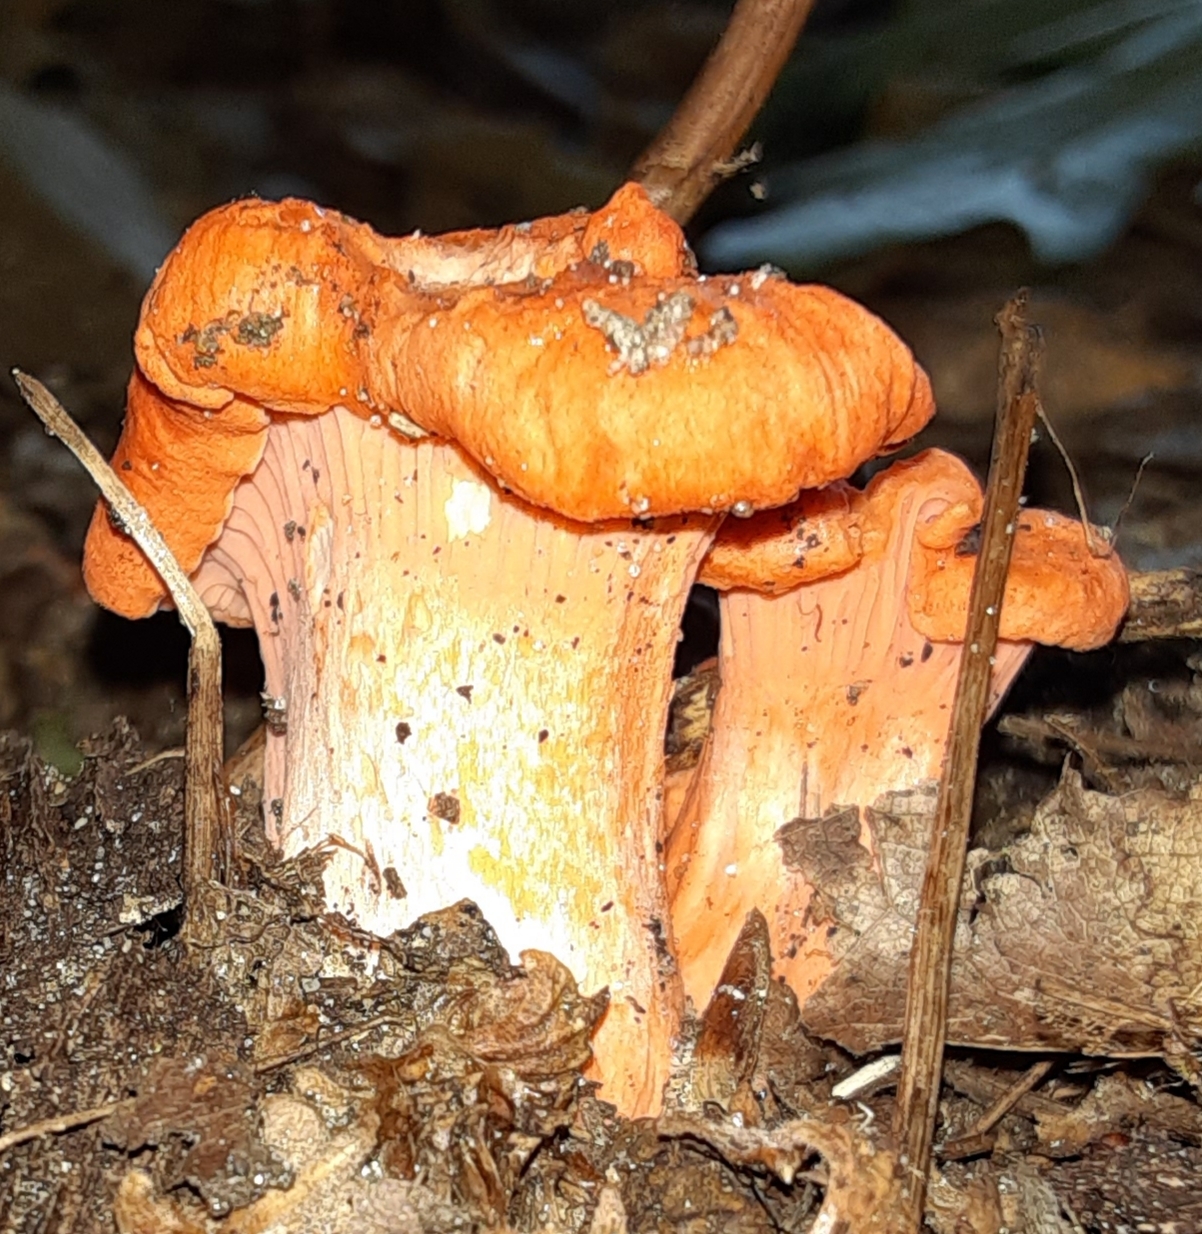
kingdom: Fungi
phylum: Ascomycota
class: Sordariomycetes
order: Hypocreales
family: Hypocreaceae
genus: Hypomyces
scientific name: Hypomyces lactifluorum
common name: Lobster mushroom
